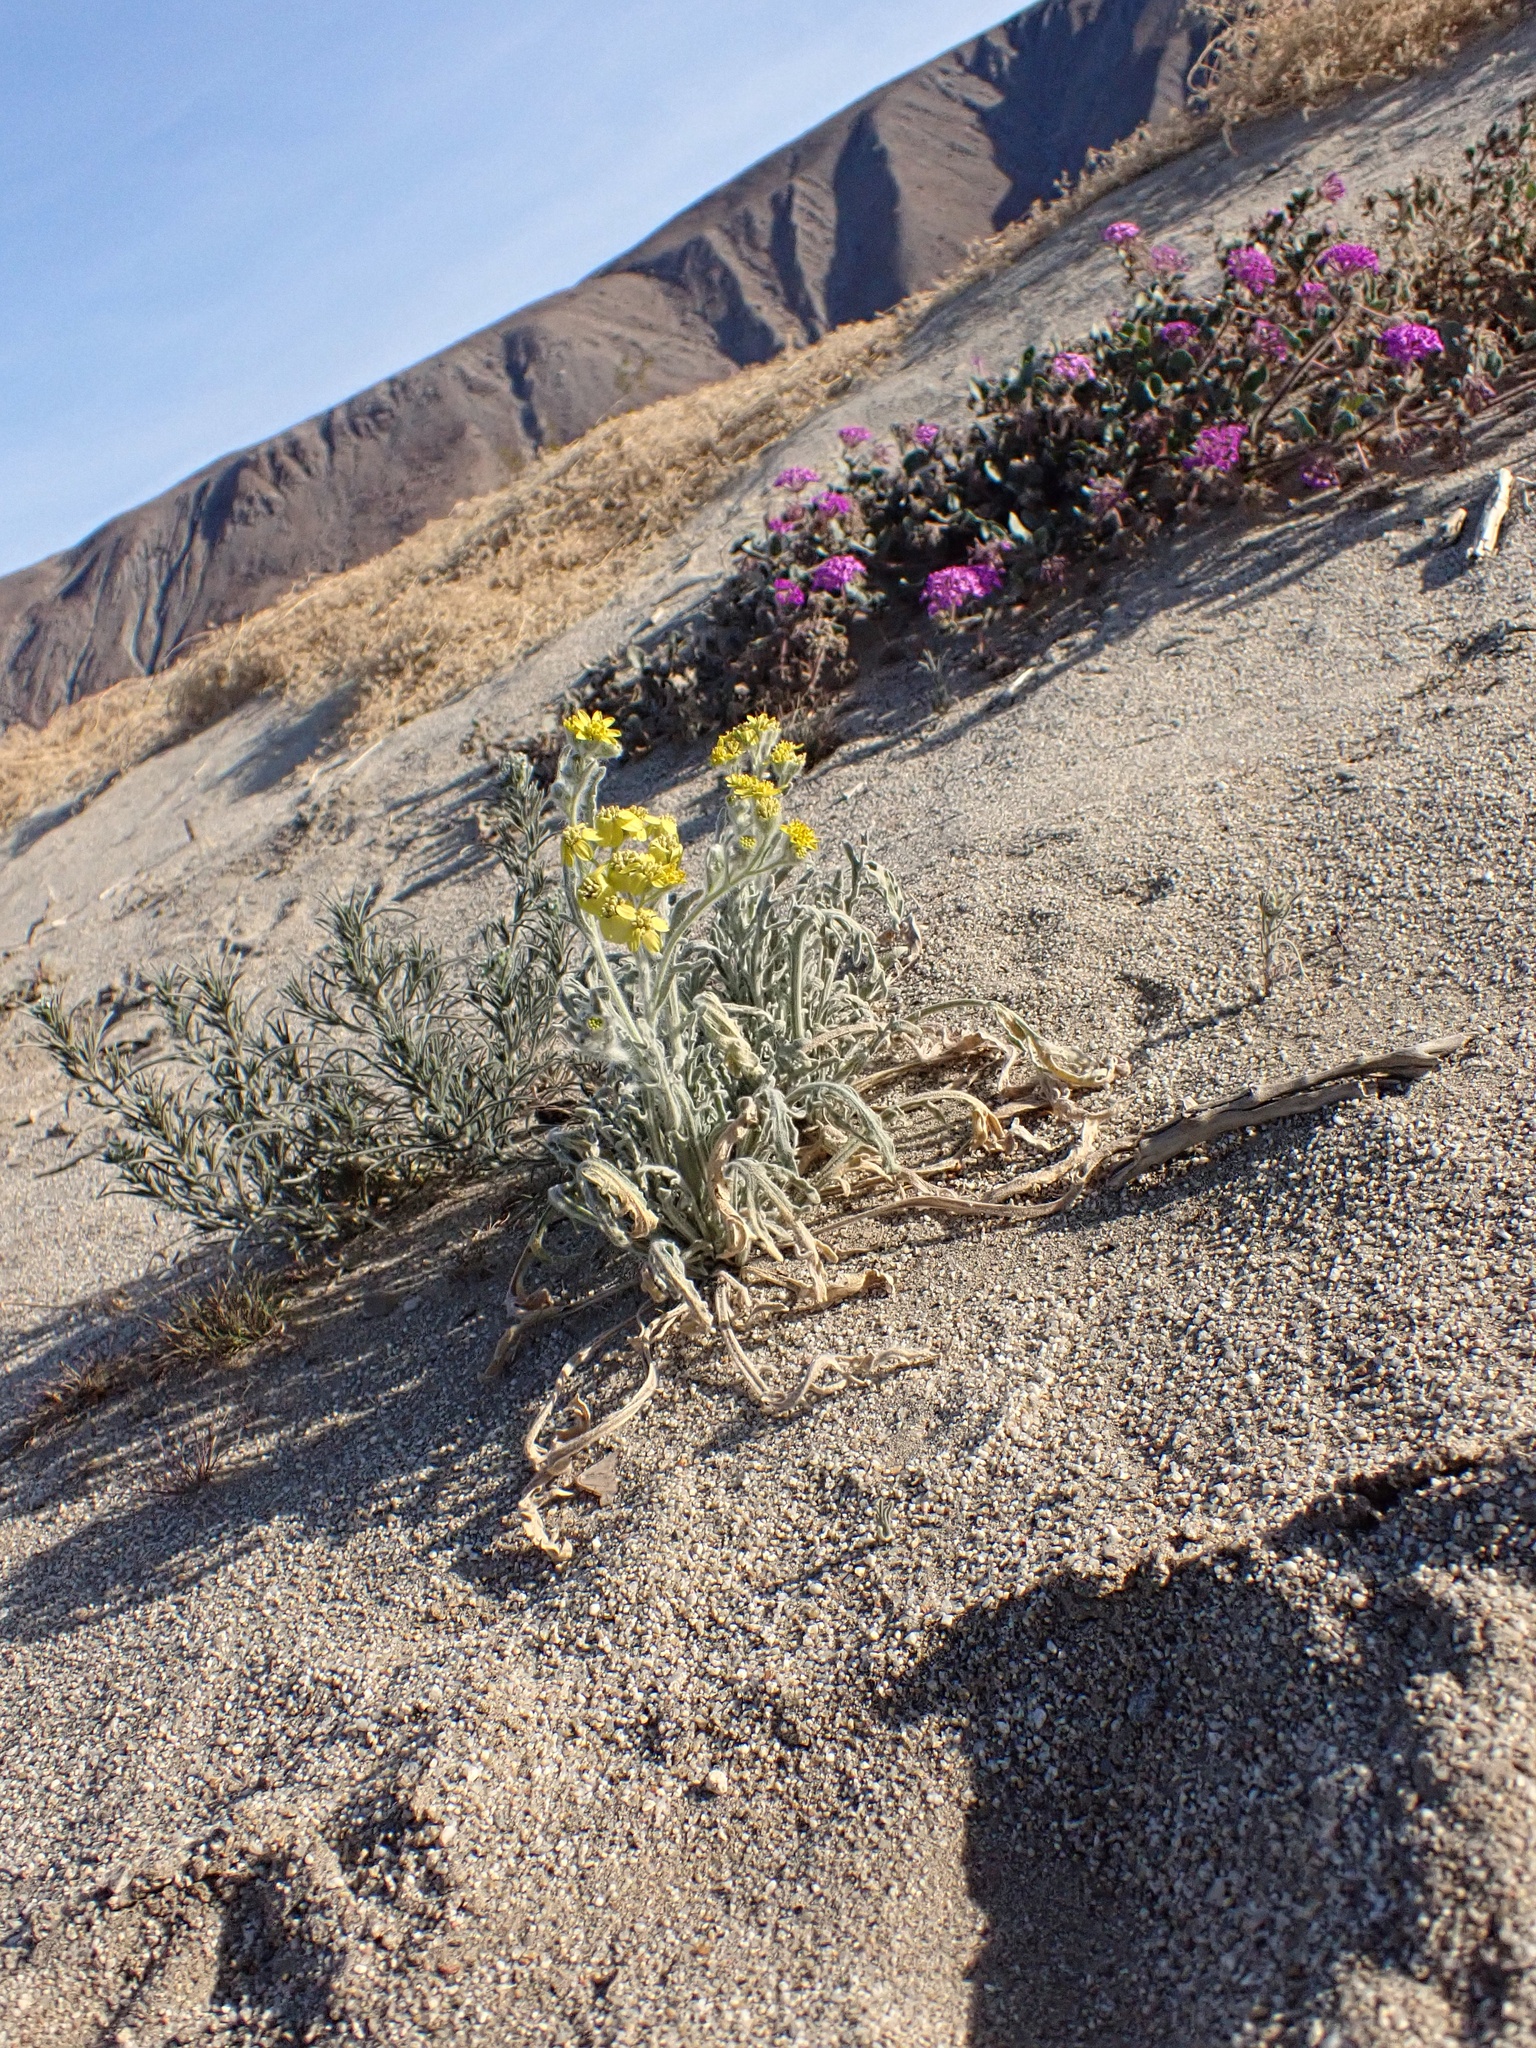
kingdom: Plantae
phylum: Tracheophyta
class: Magnoliopsida
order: Asterales
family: Asteraceae
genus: Baileya
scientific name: Baileya pauciradiata
